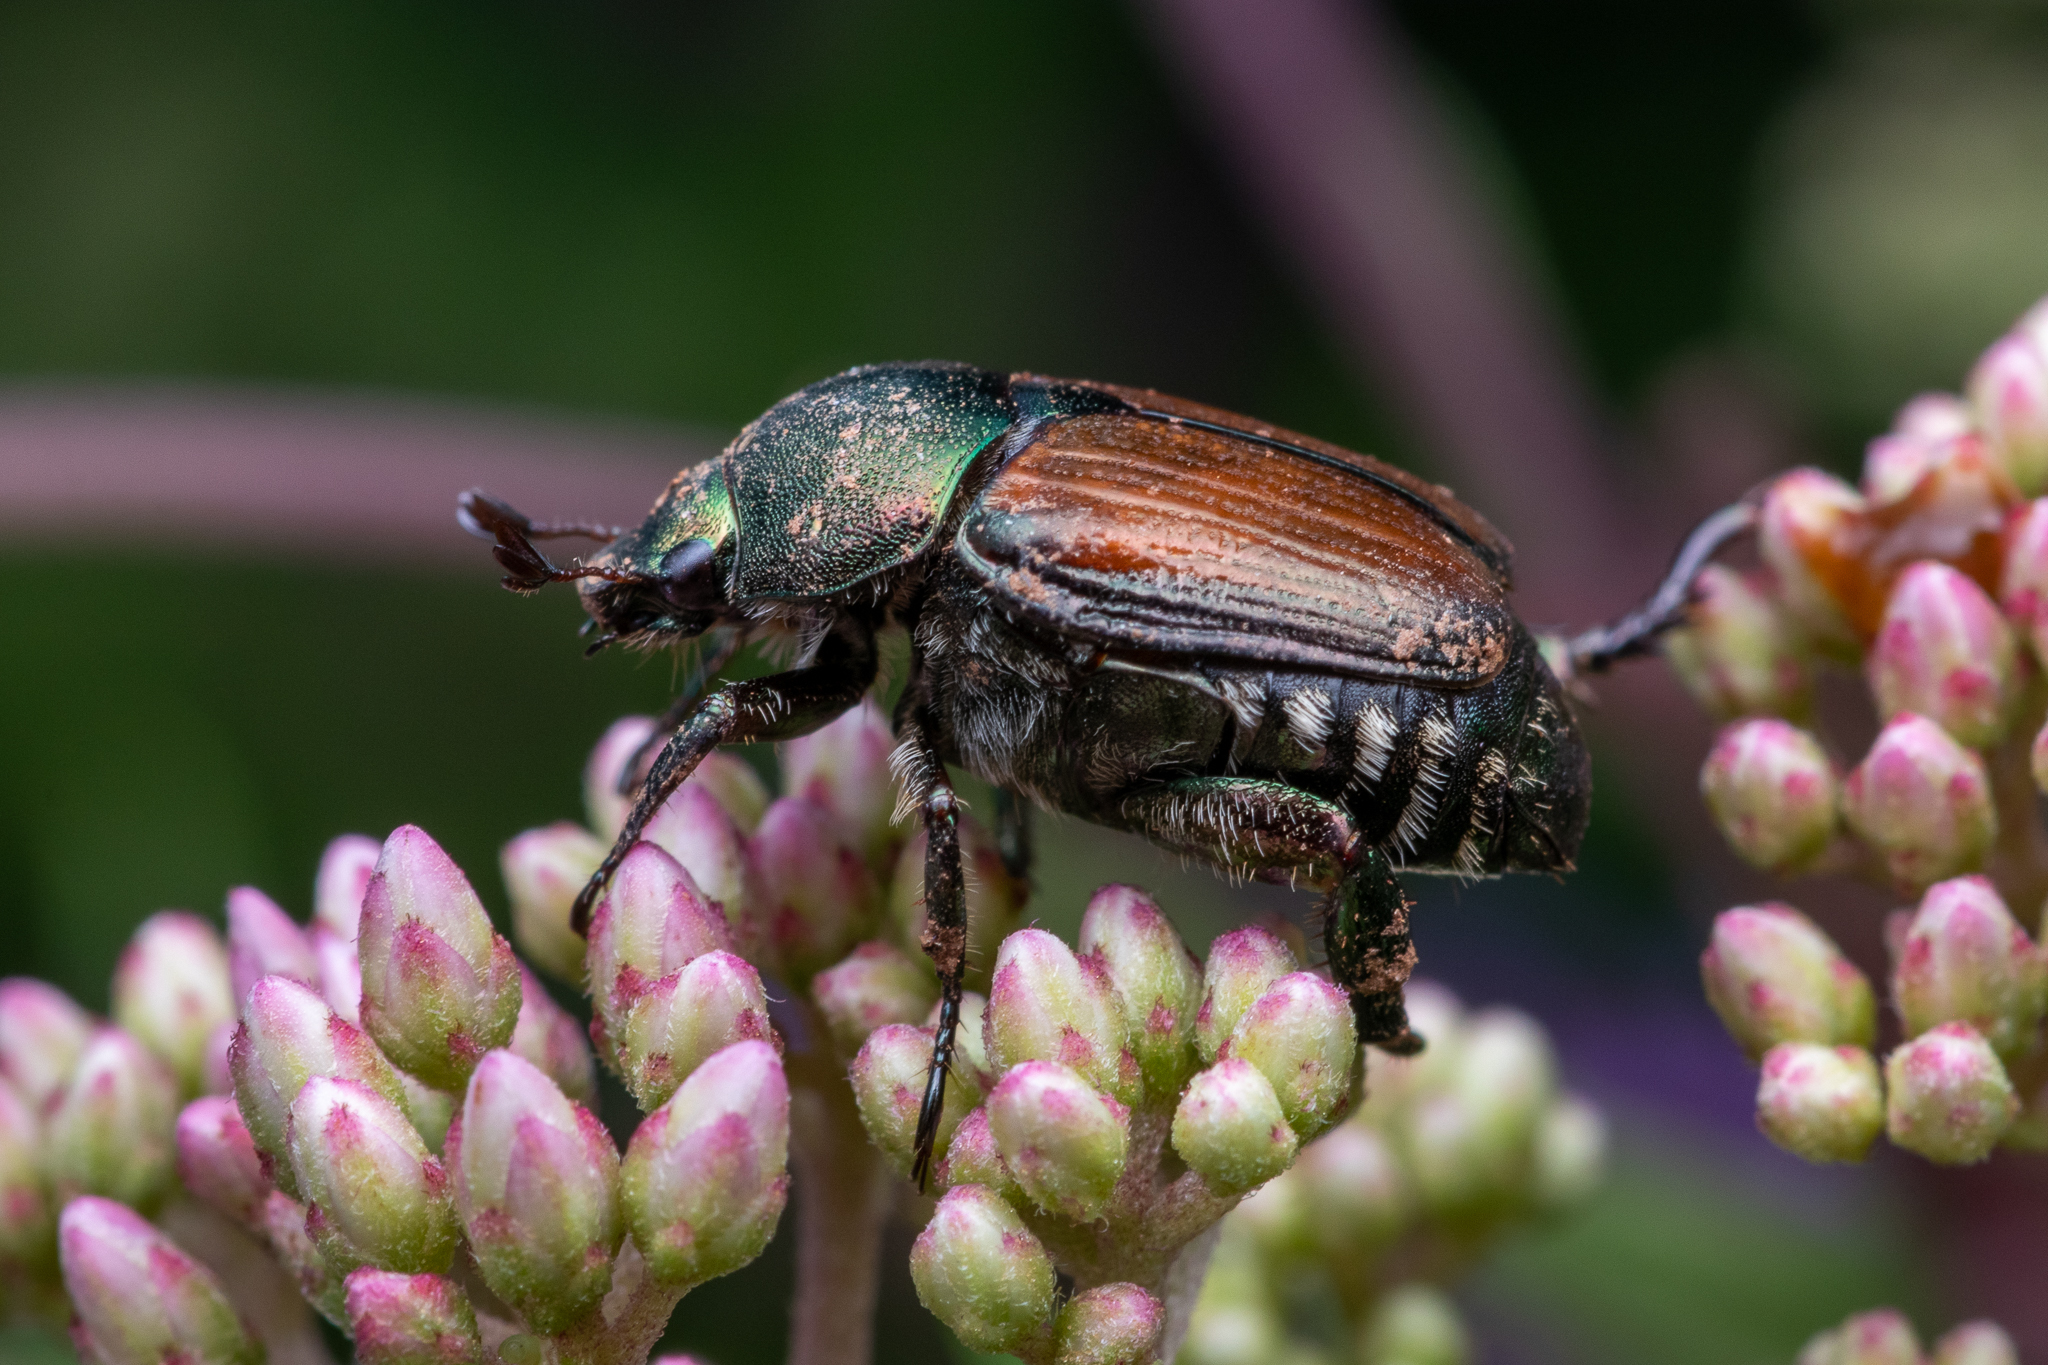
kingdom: Animalia
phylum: Arthropoda
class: Insecta
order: Coleoptera
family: Scarabaeidae
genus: Popillia
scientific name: Popillia japonica
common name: Japanese beetle
